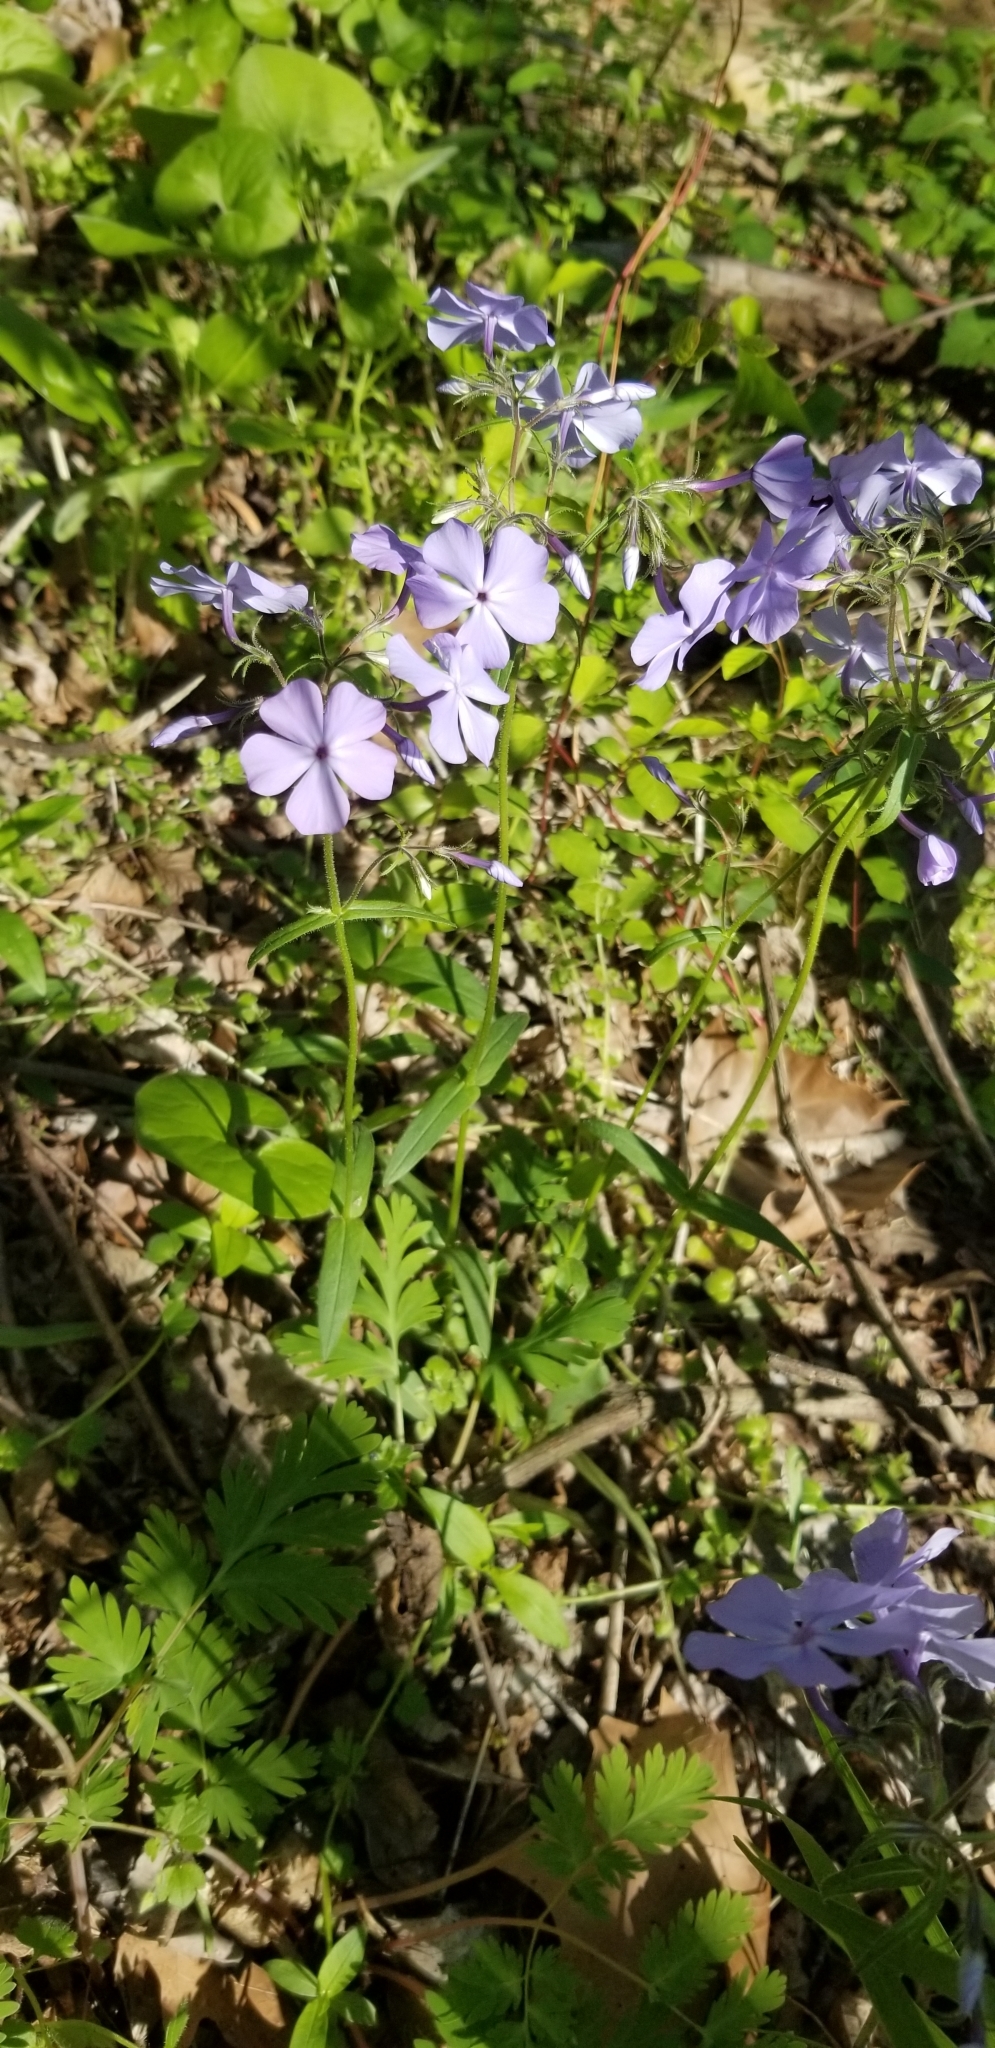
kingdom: Plantae
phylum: Tracheophyta
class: Magnoliopsida
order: Ericales
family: Polemoniaceae
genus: Phlox
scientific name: Phlox divaricata
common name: Blue phlox
